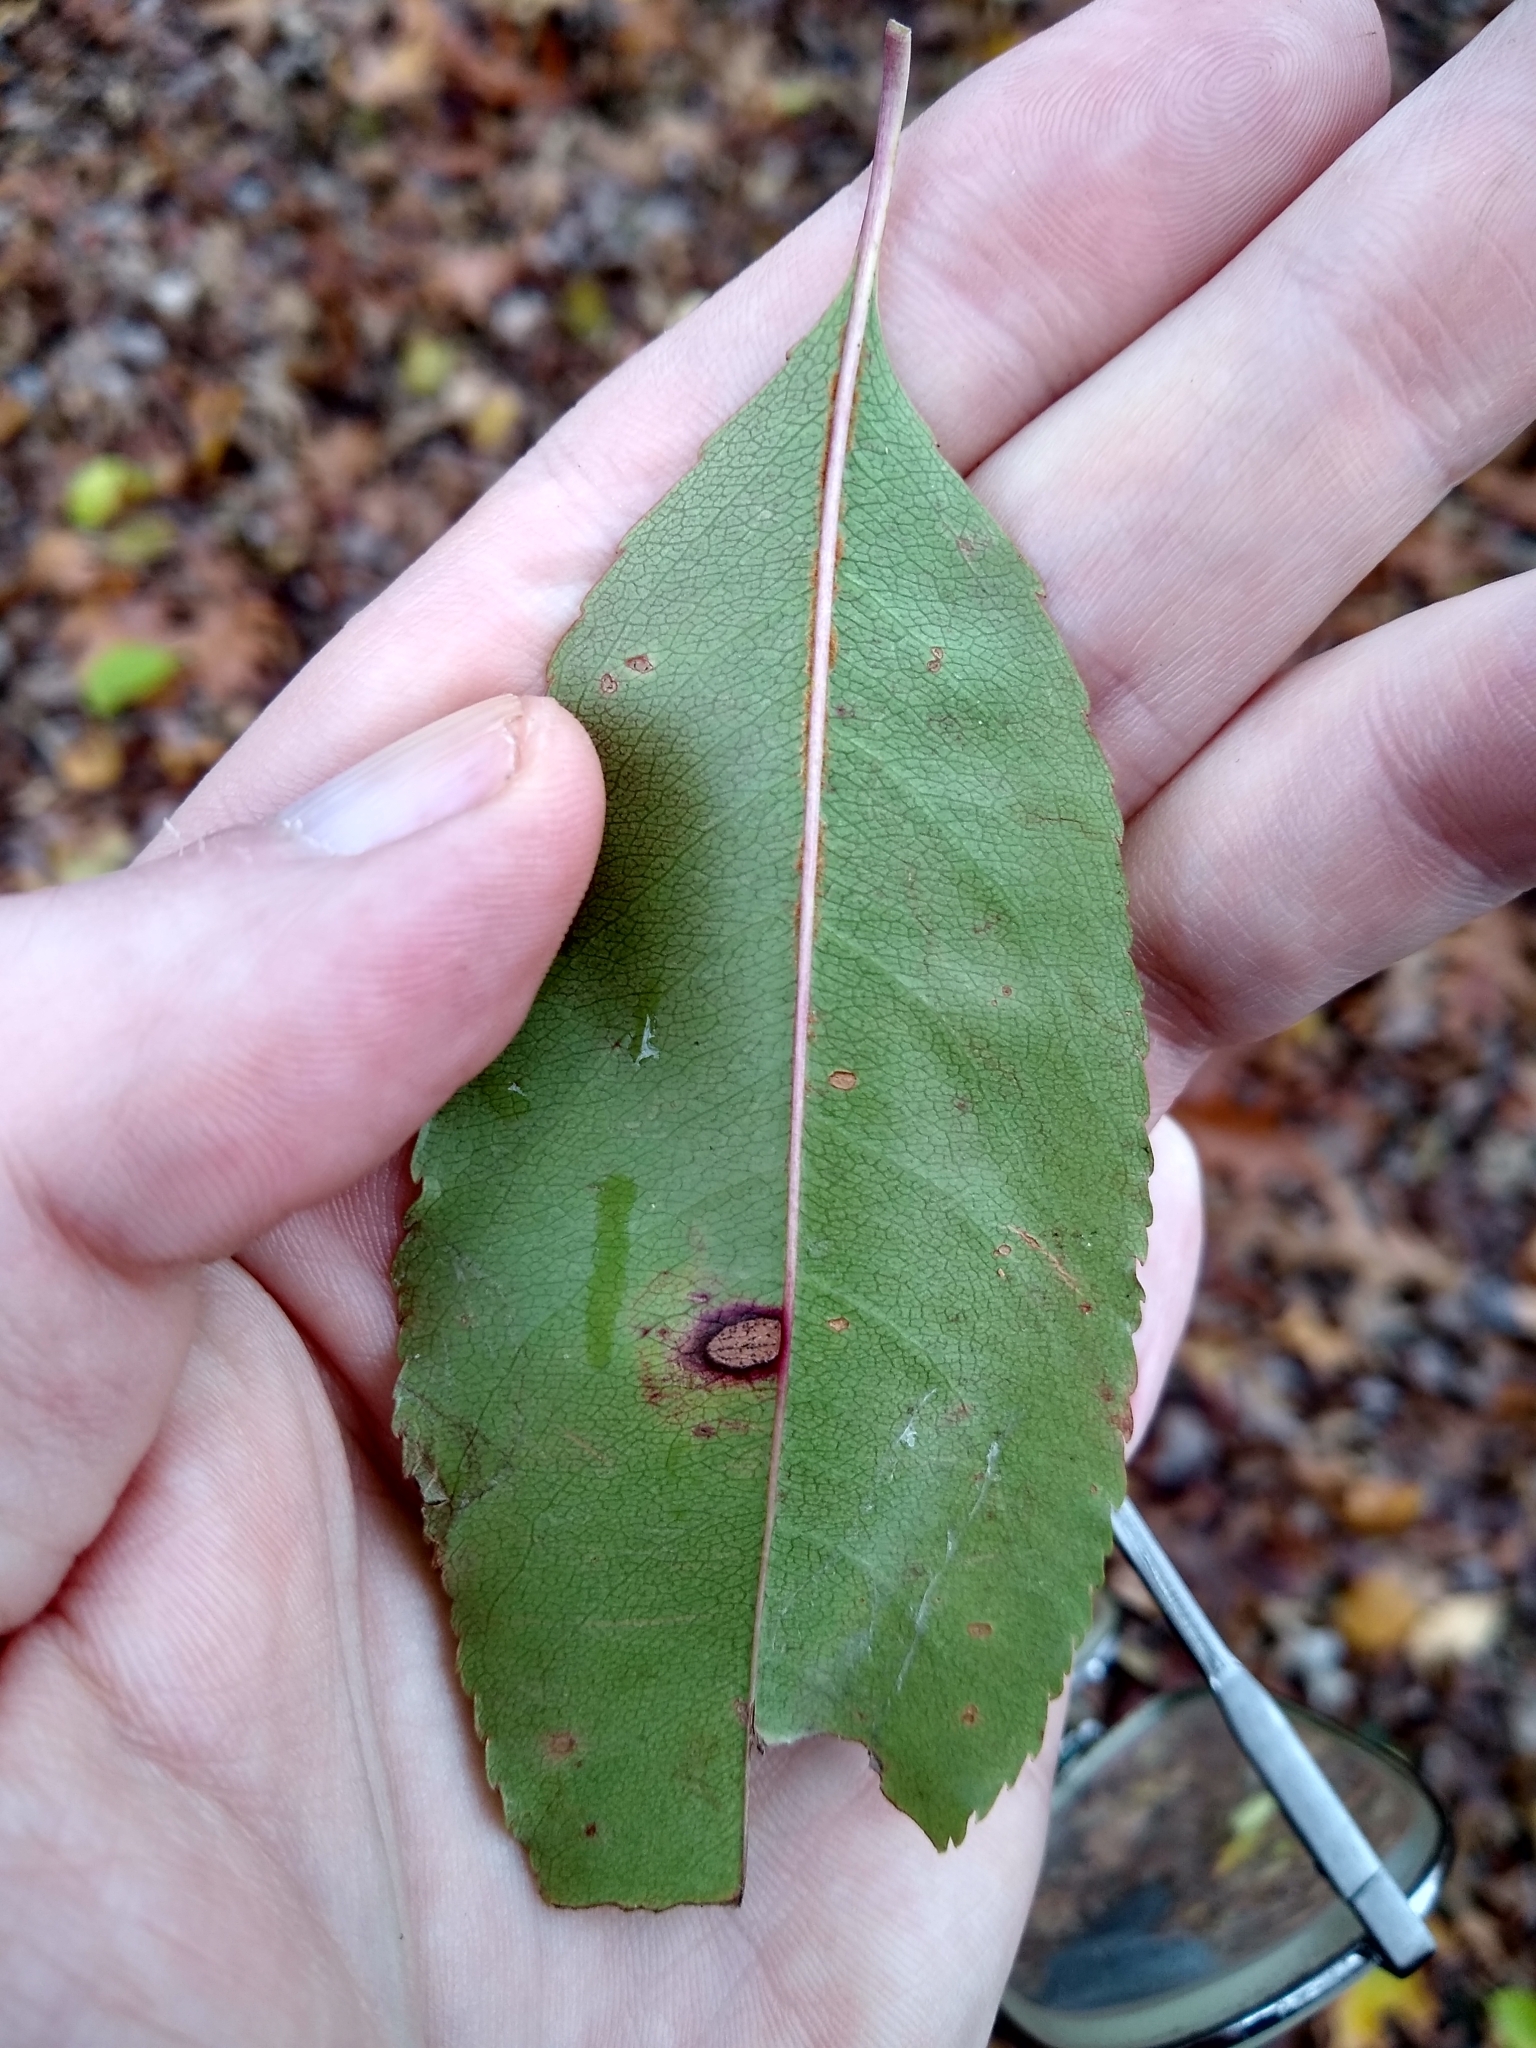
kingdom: Plantae
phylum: Tracheophyta
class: Magnoliopsida
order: Rosales
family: Rosaceae
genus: Prunus
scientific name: Prunus serotina
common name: Black cherry
